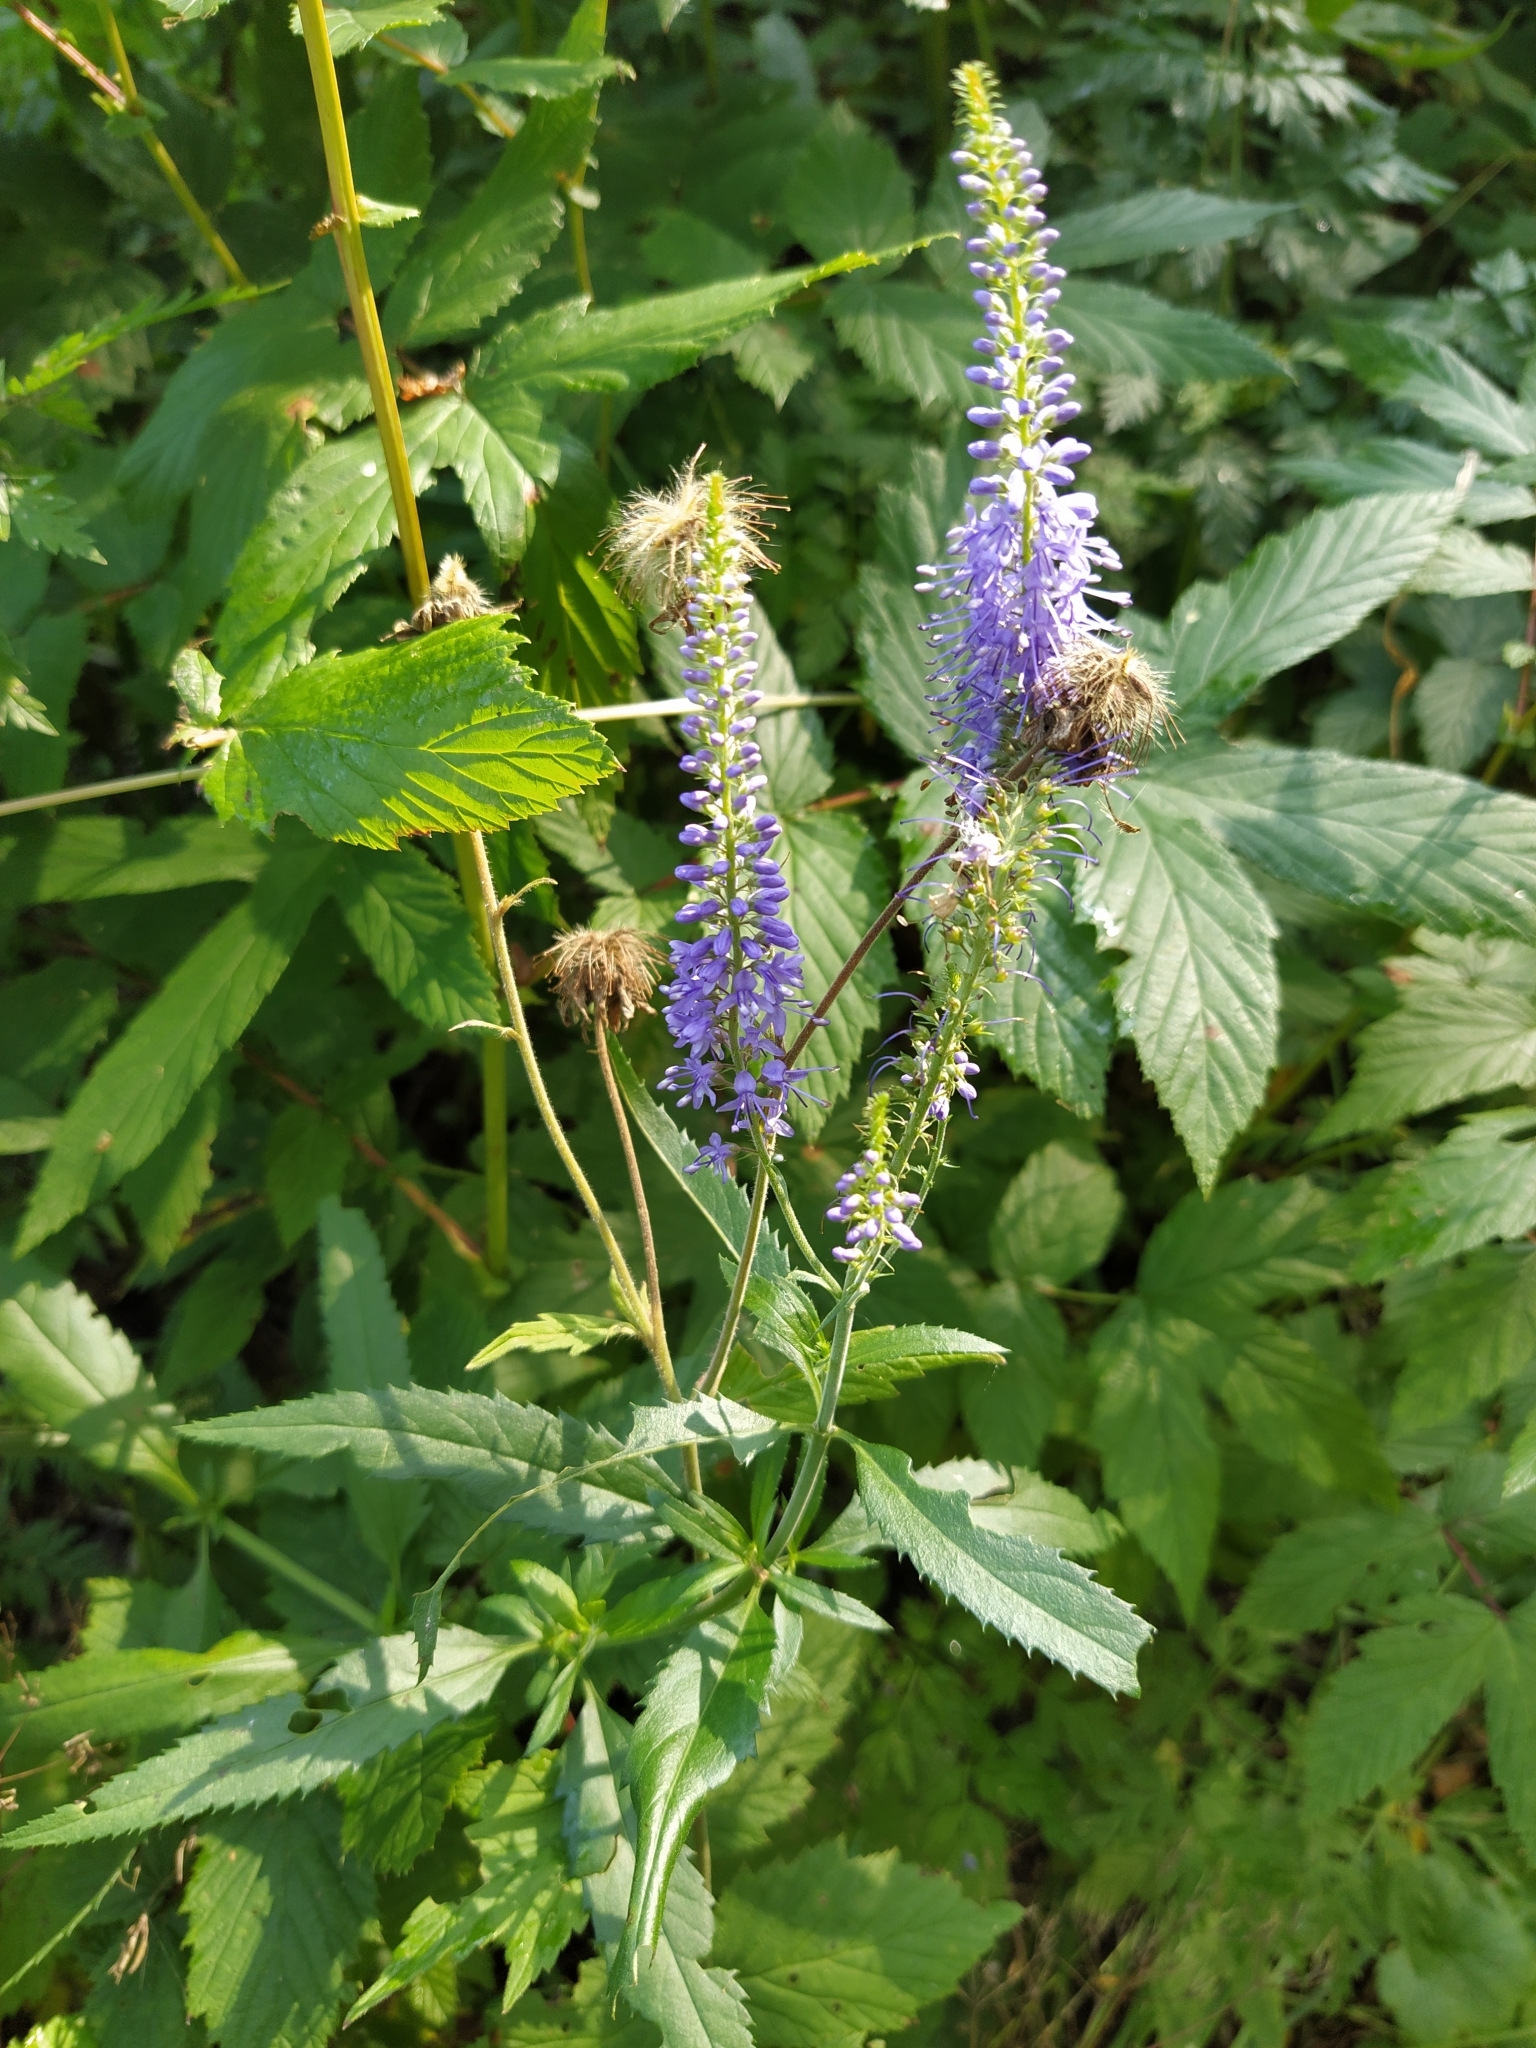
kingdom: Plantae
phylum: Tracheophyta
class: Magnoliopsida
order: Lamiales
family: Plantaginaceae
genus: Veronica
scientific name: Veronica longifolia
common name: Garden speedwell
